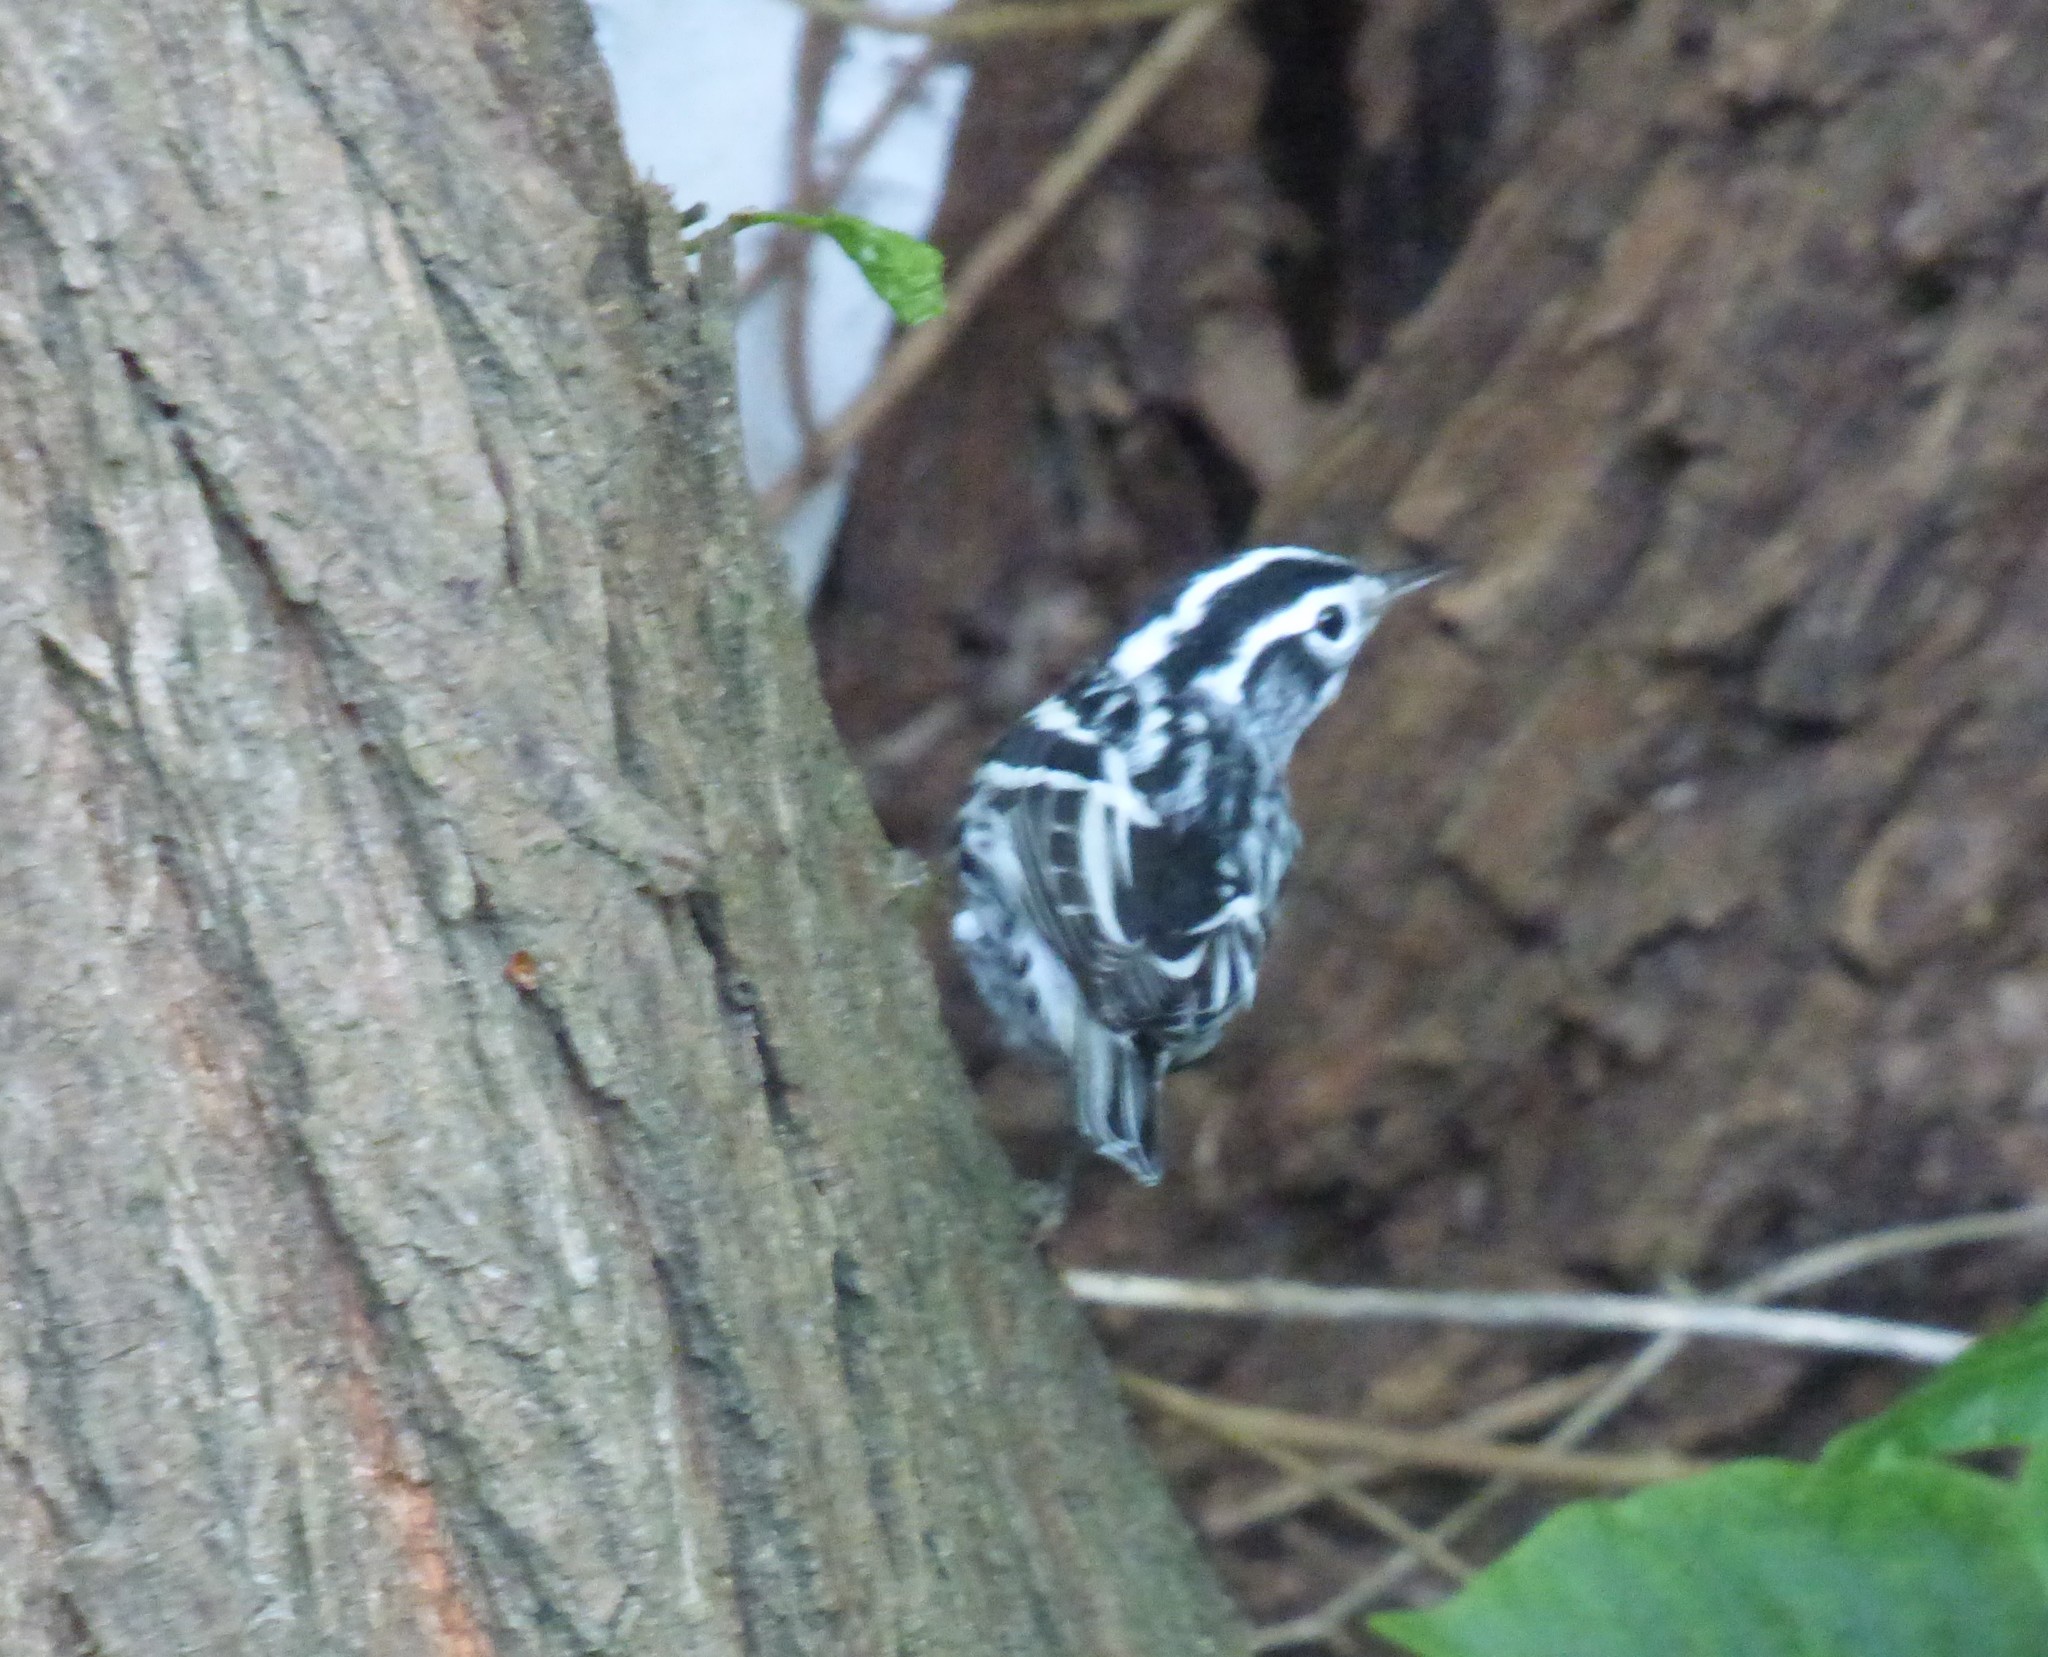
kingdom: Animalia
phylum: Chordata
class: Aves
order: Passeriformes
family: Parulidae
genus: Mniotilta
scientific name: Mniotilta varia
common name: Black-and-white warbler
